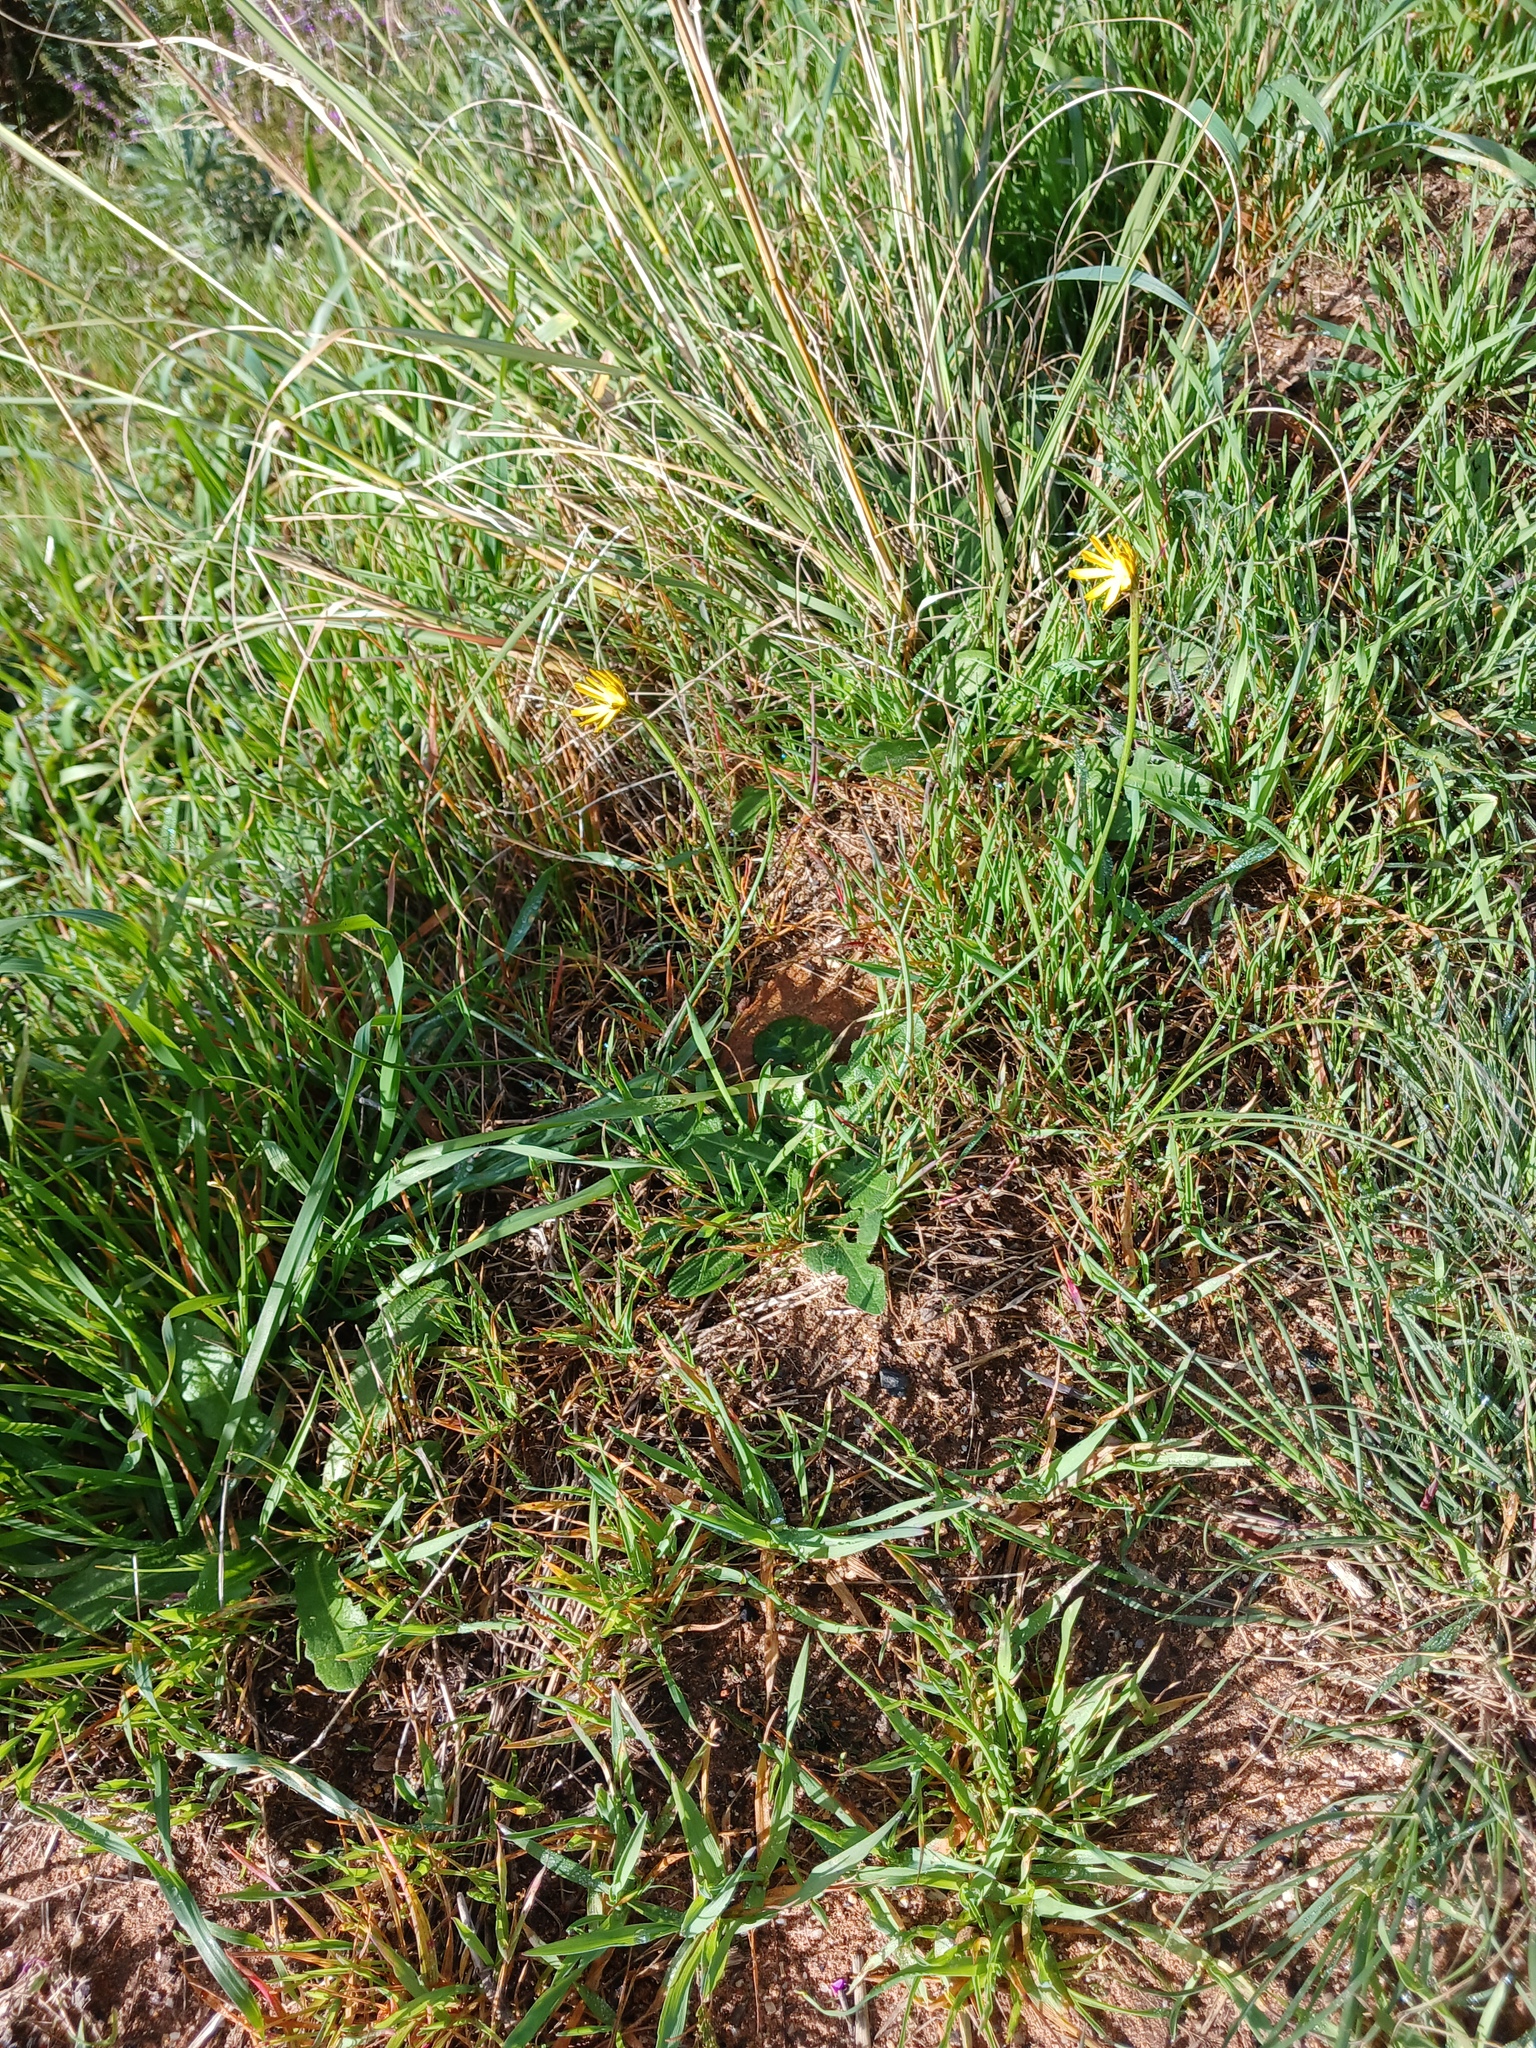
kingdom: Plantae
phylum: Tracheophyta
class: Magnoliopsida
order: Asterales
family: Asteraceae
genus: Hypochaeris
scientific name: Hypochaeris radicata
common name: Flatweed
